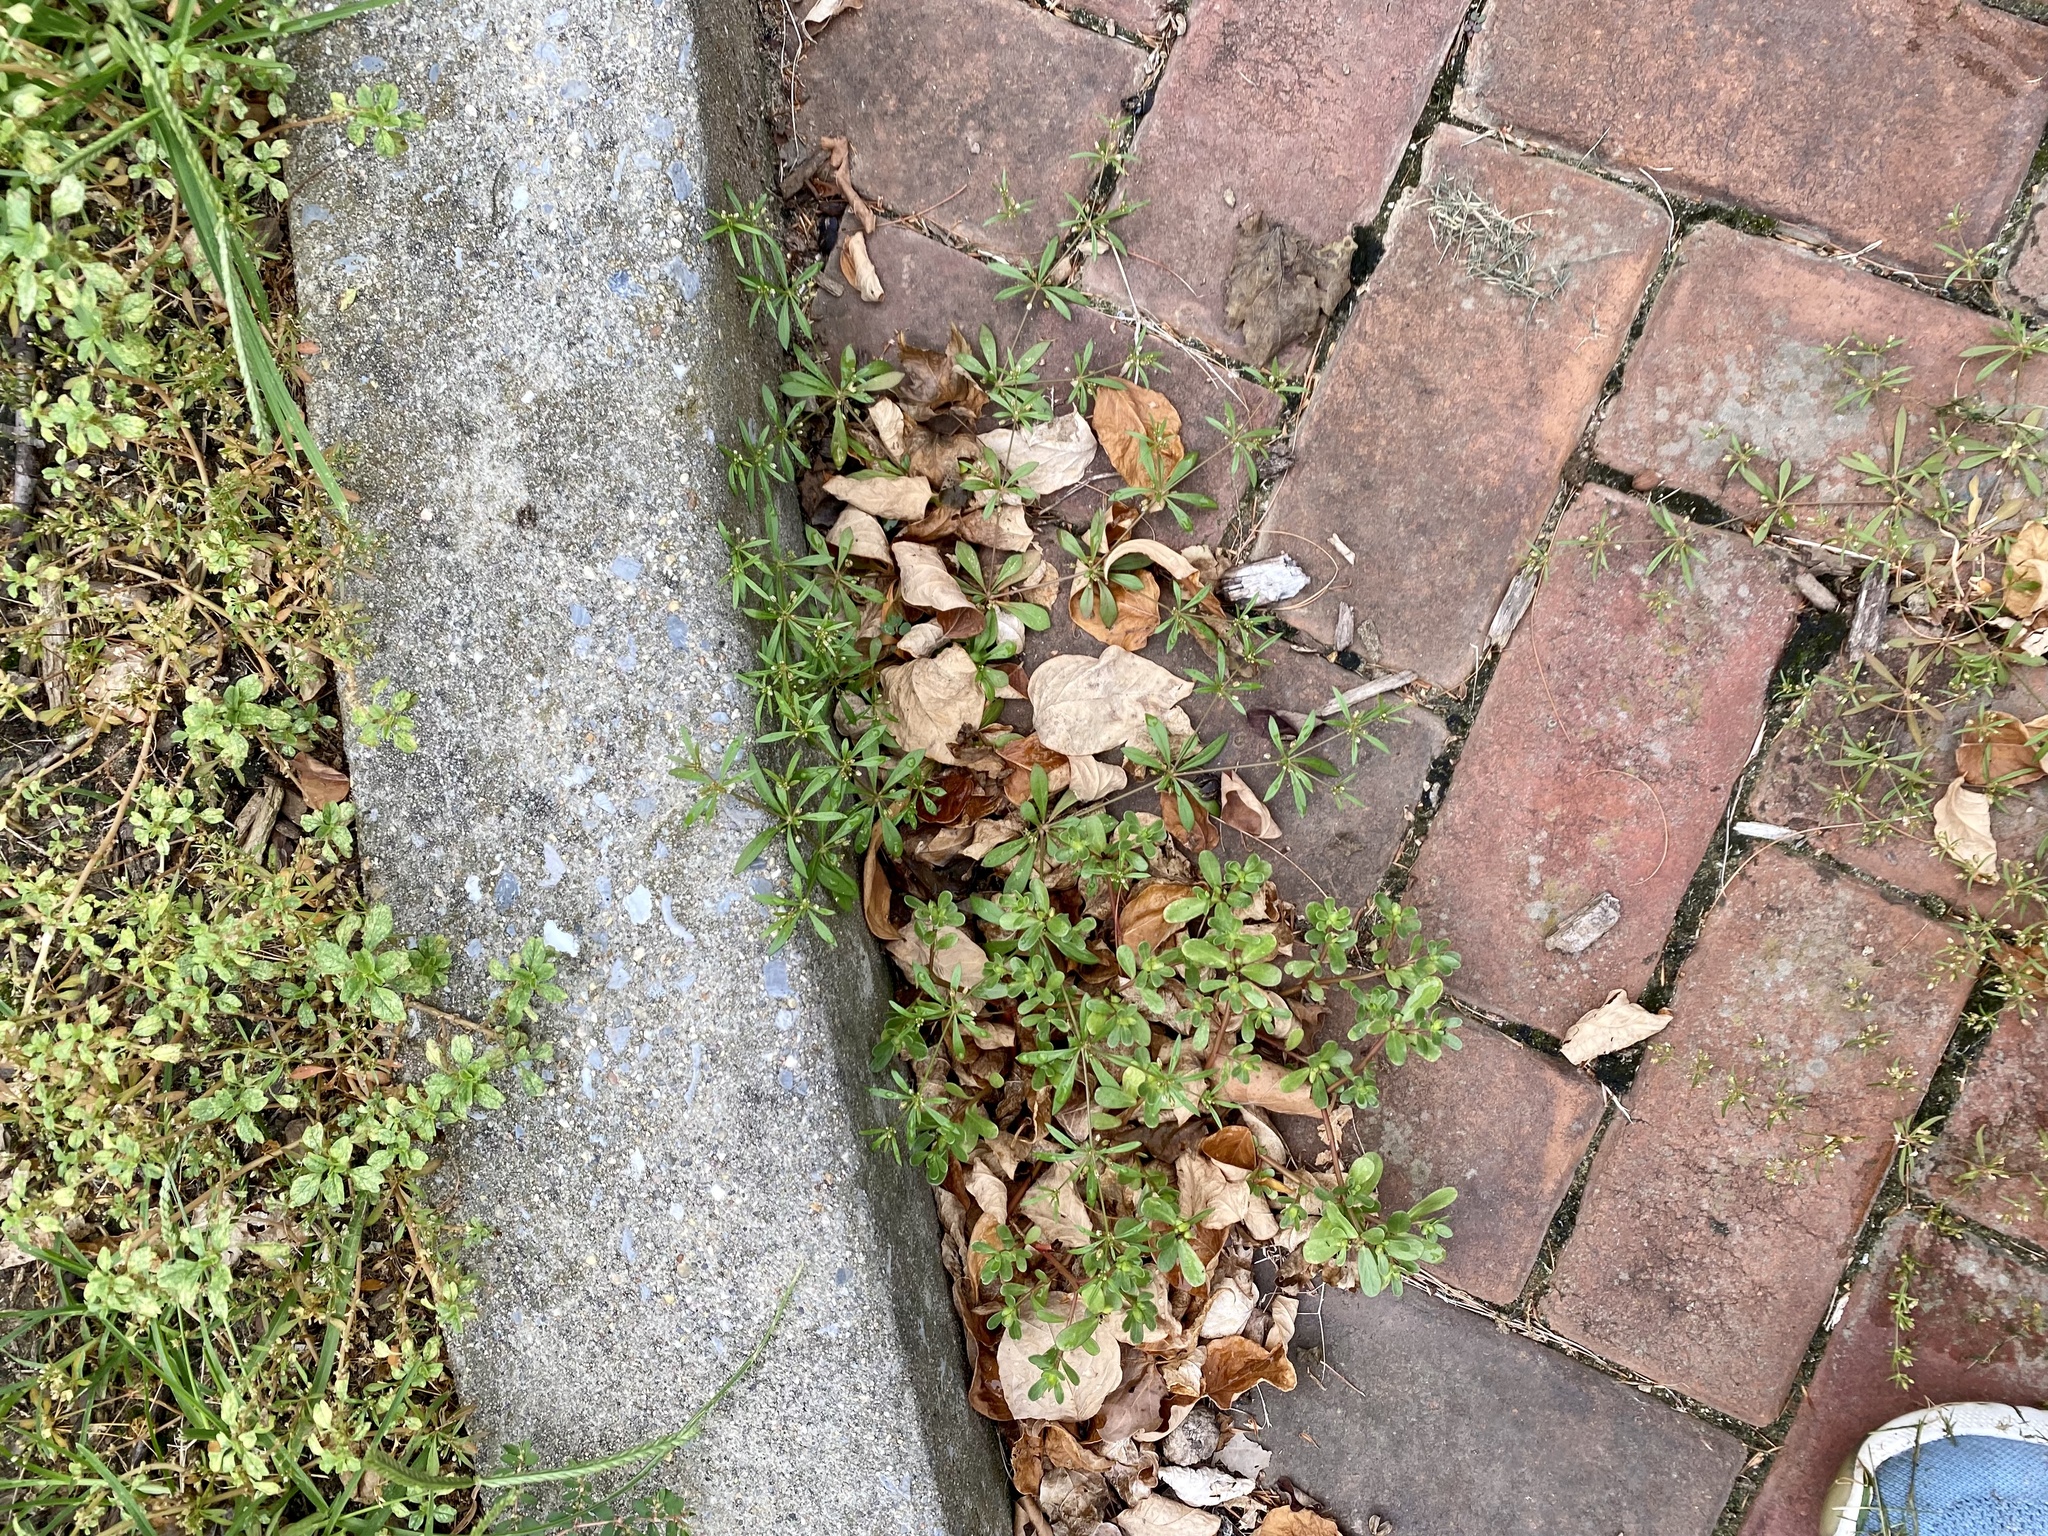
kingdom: Plantae
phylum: Tracheophyta
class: Magnoliopsida
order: Caryophyllales
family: Molluginaceae
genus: Mollugo
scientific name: Mollugo verticillata
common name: Green carpetweed
